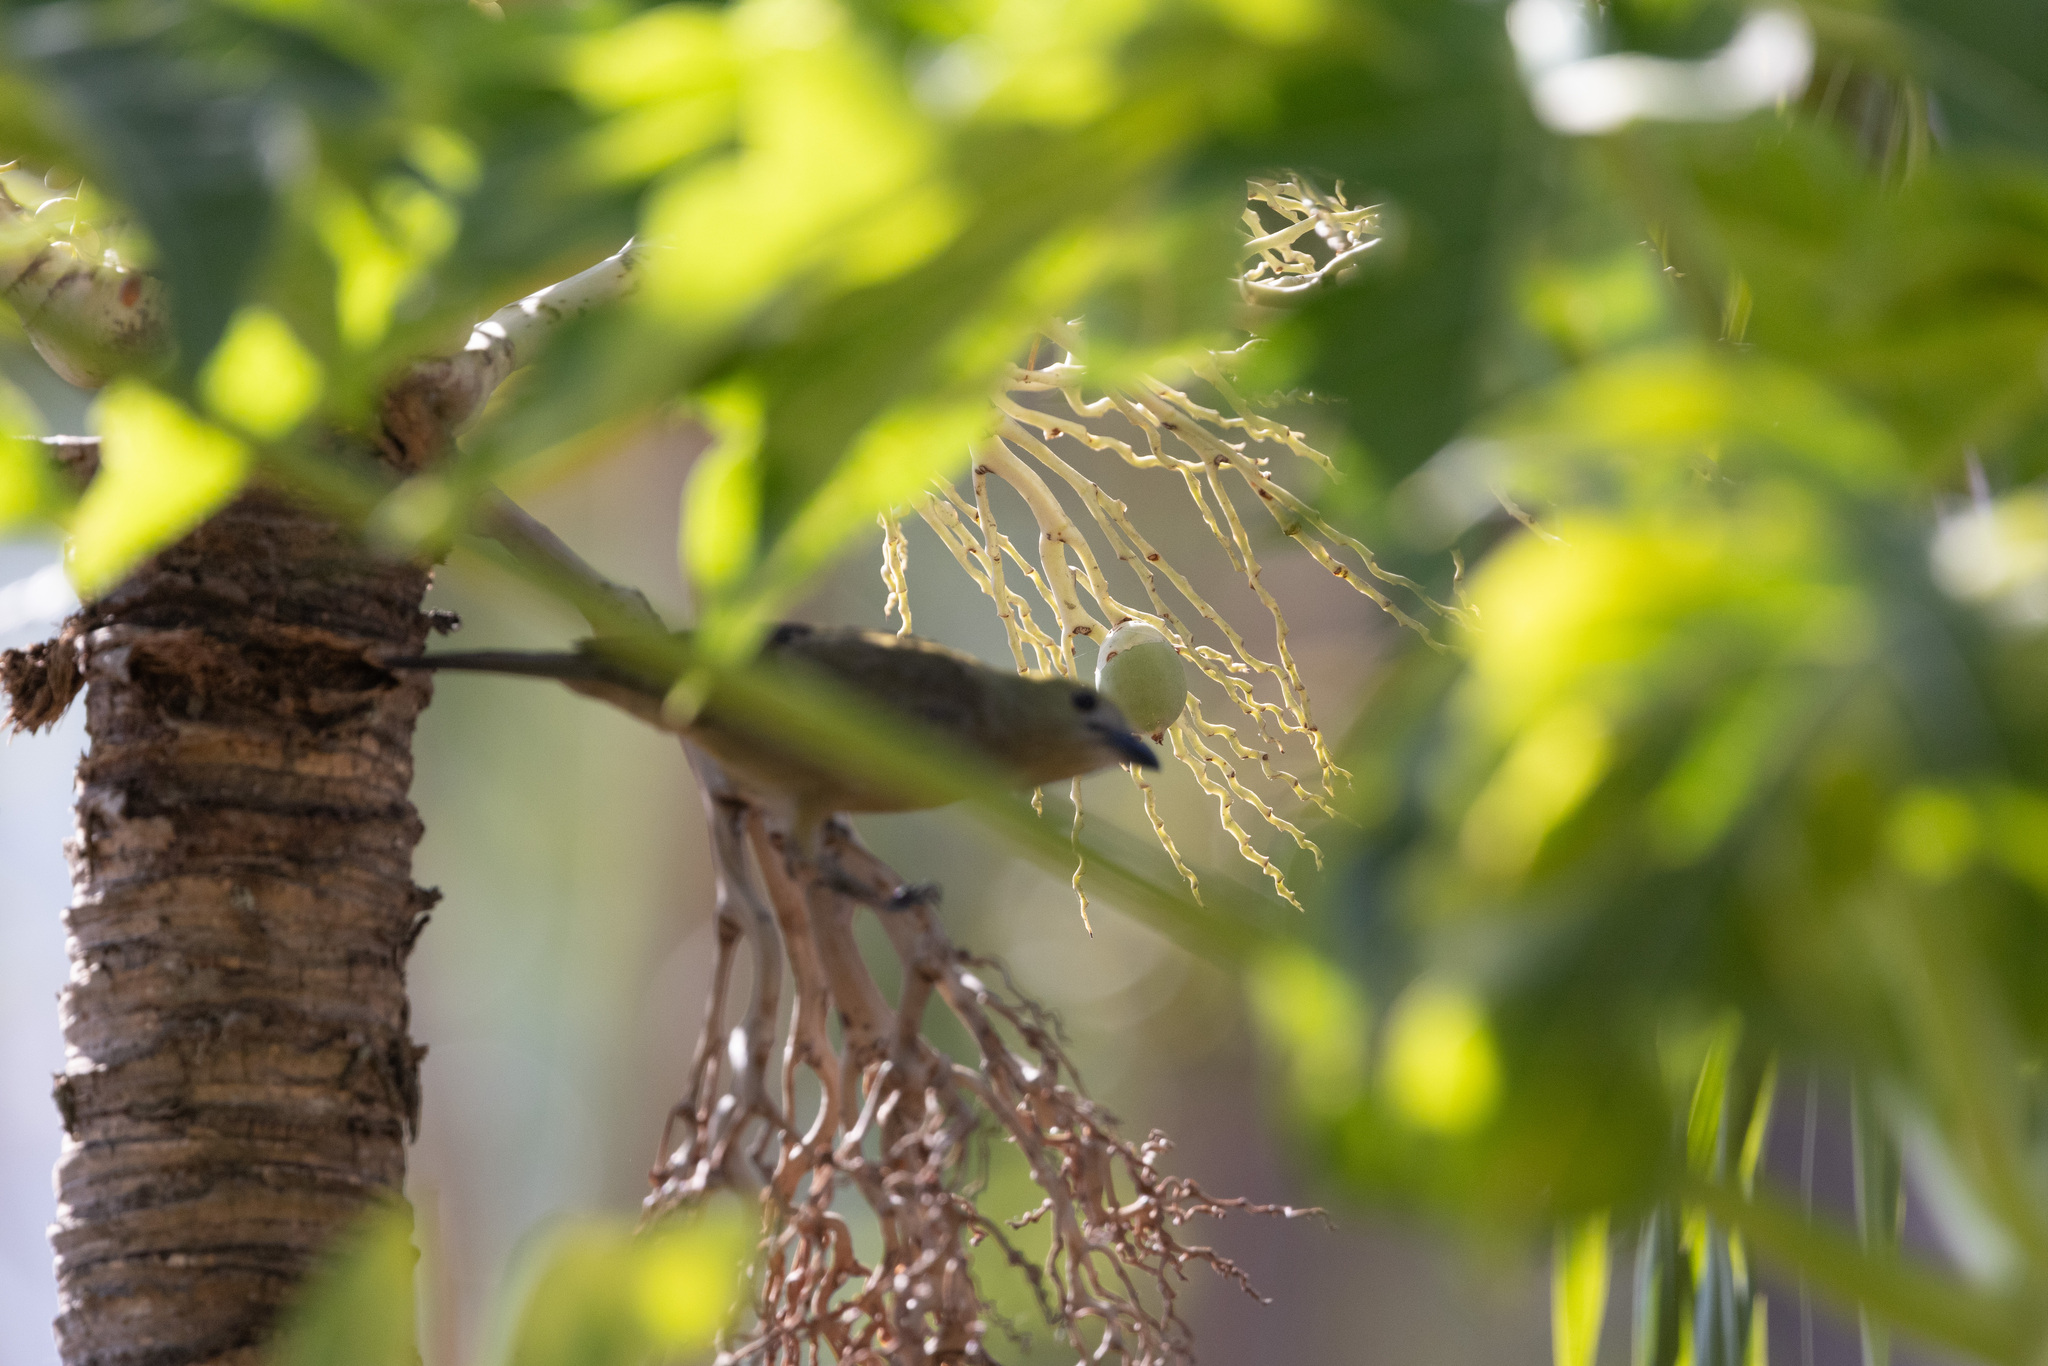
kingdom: Animalia
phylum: Chordata
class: Aves
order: Passeriformes
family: Thraupidae
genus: Thraupis
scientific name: Thraupis palmarum
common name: Palm tanager
